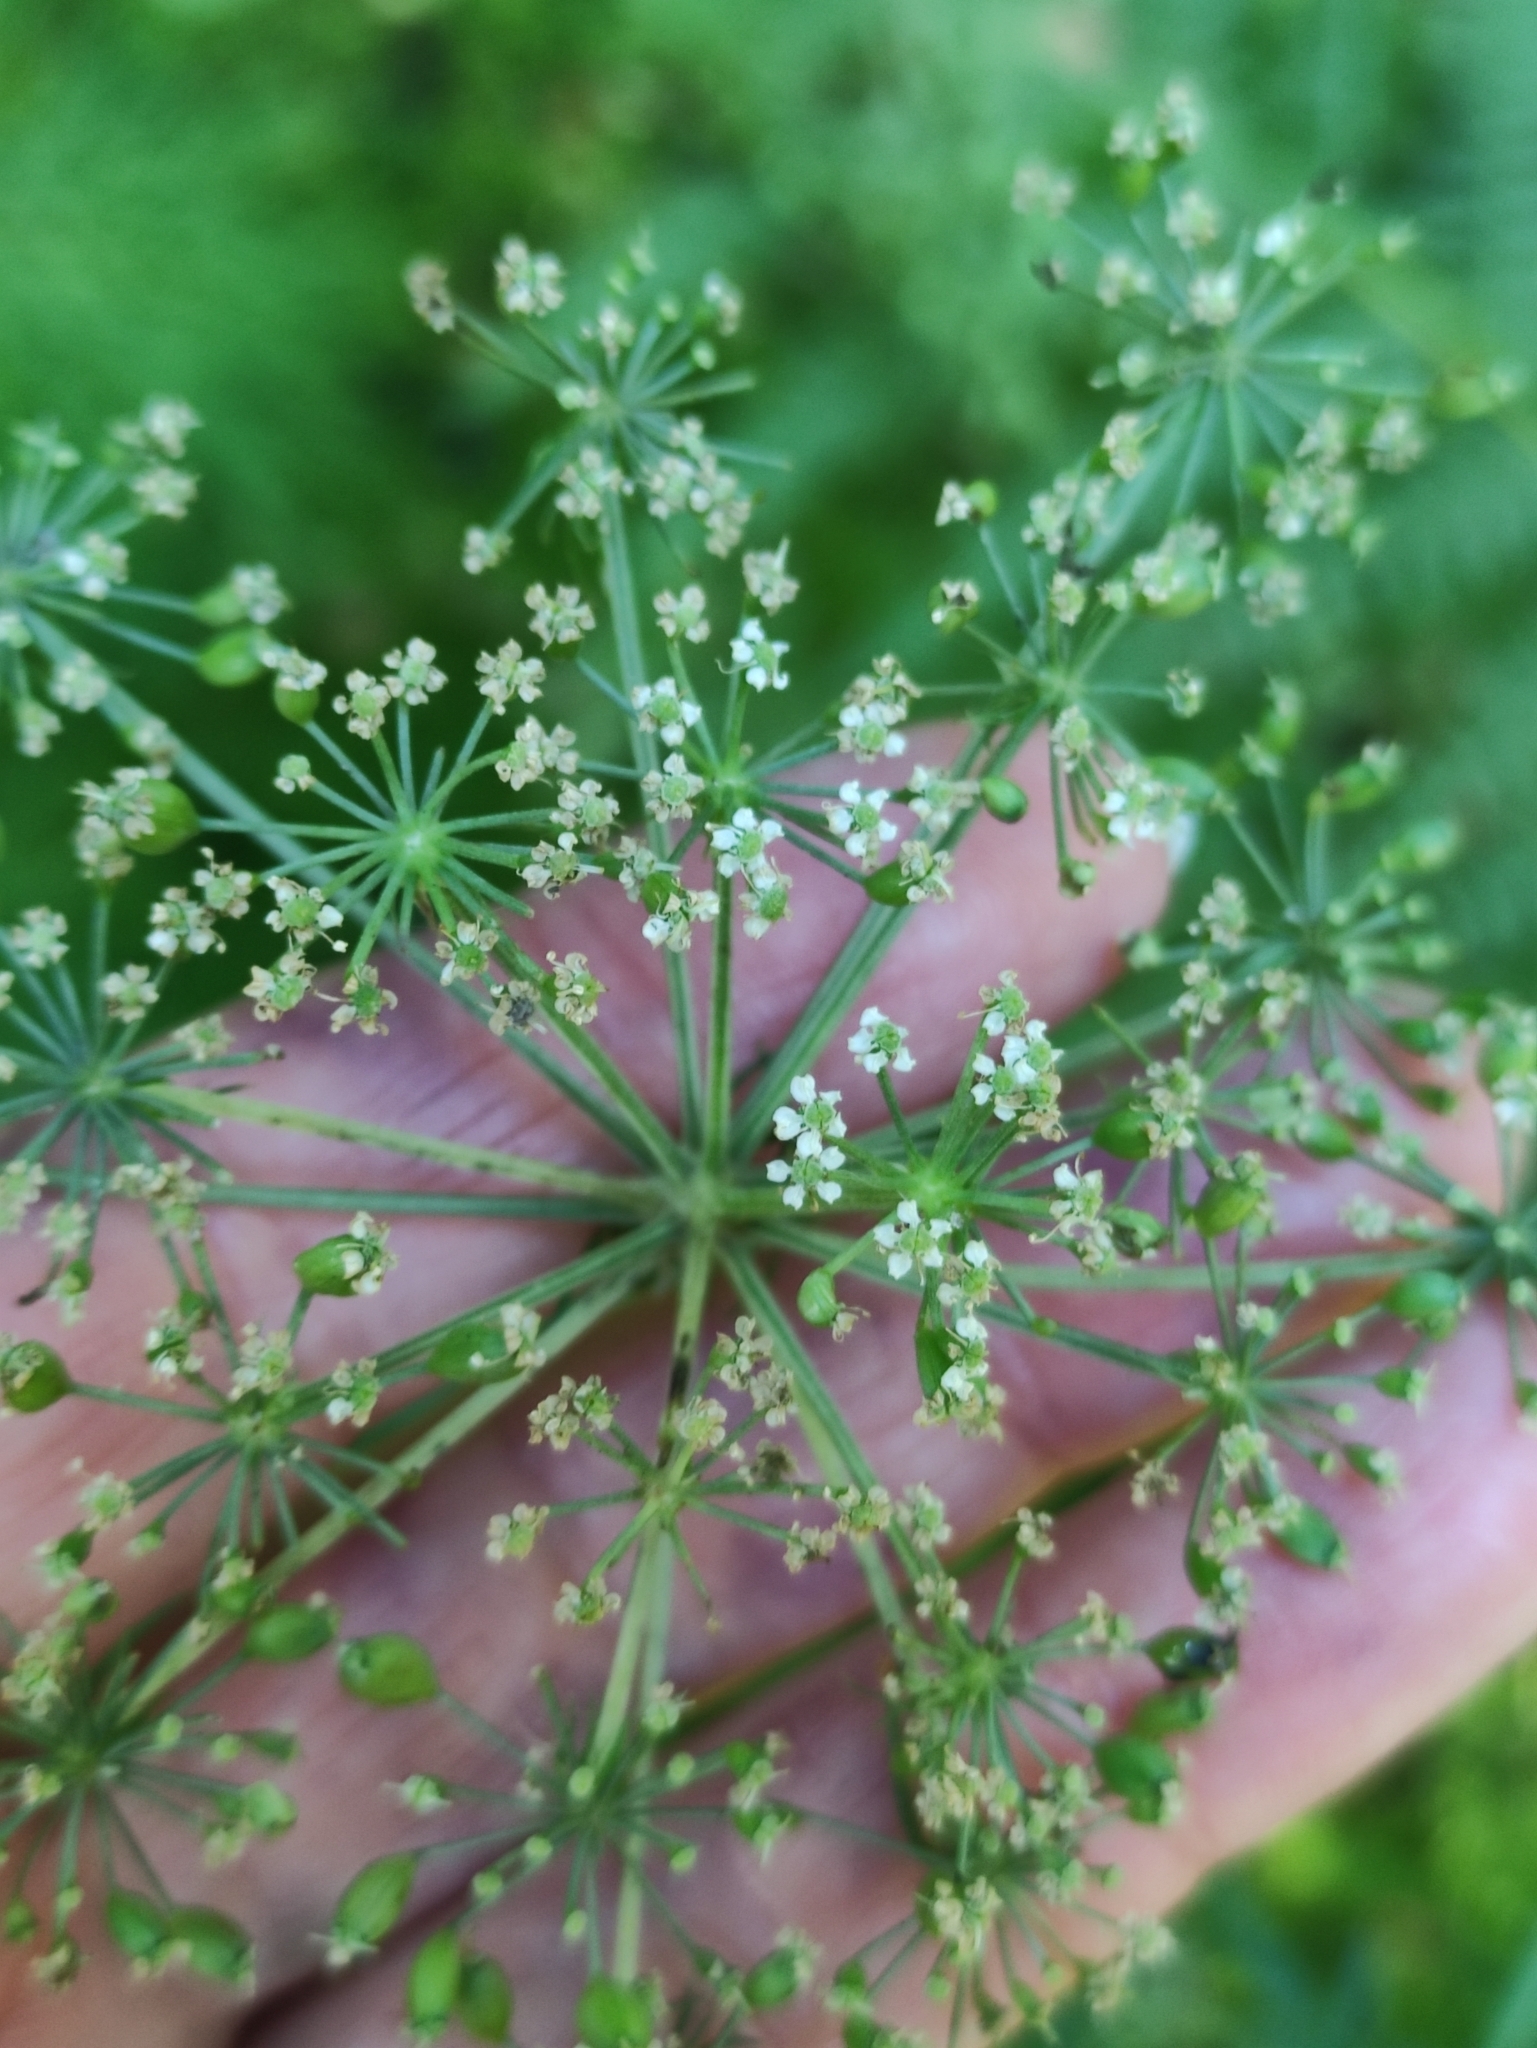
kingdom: Plantae
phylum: Tracheophyta
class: Magnoliopsida
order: Apiales
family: Apiaceae
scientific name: Apiaceae
